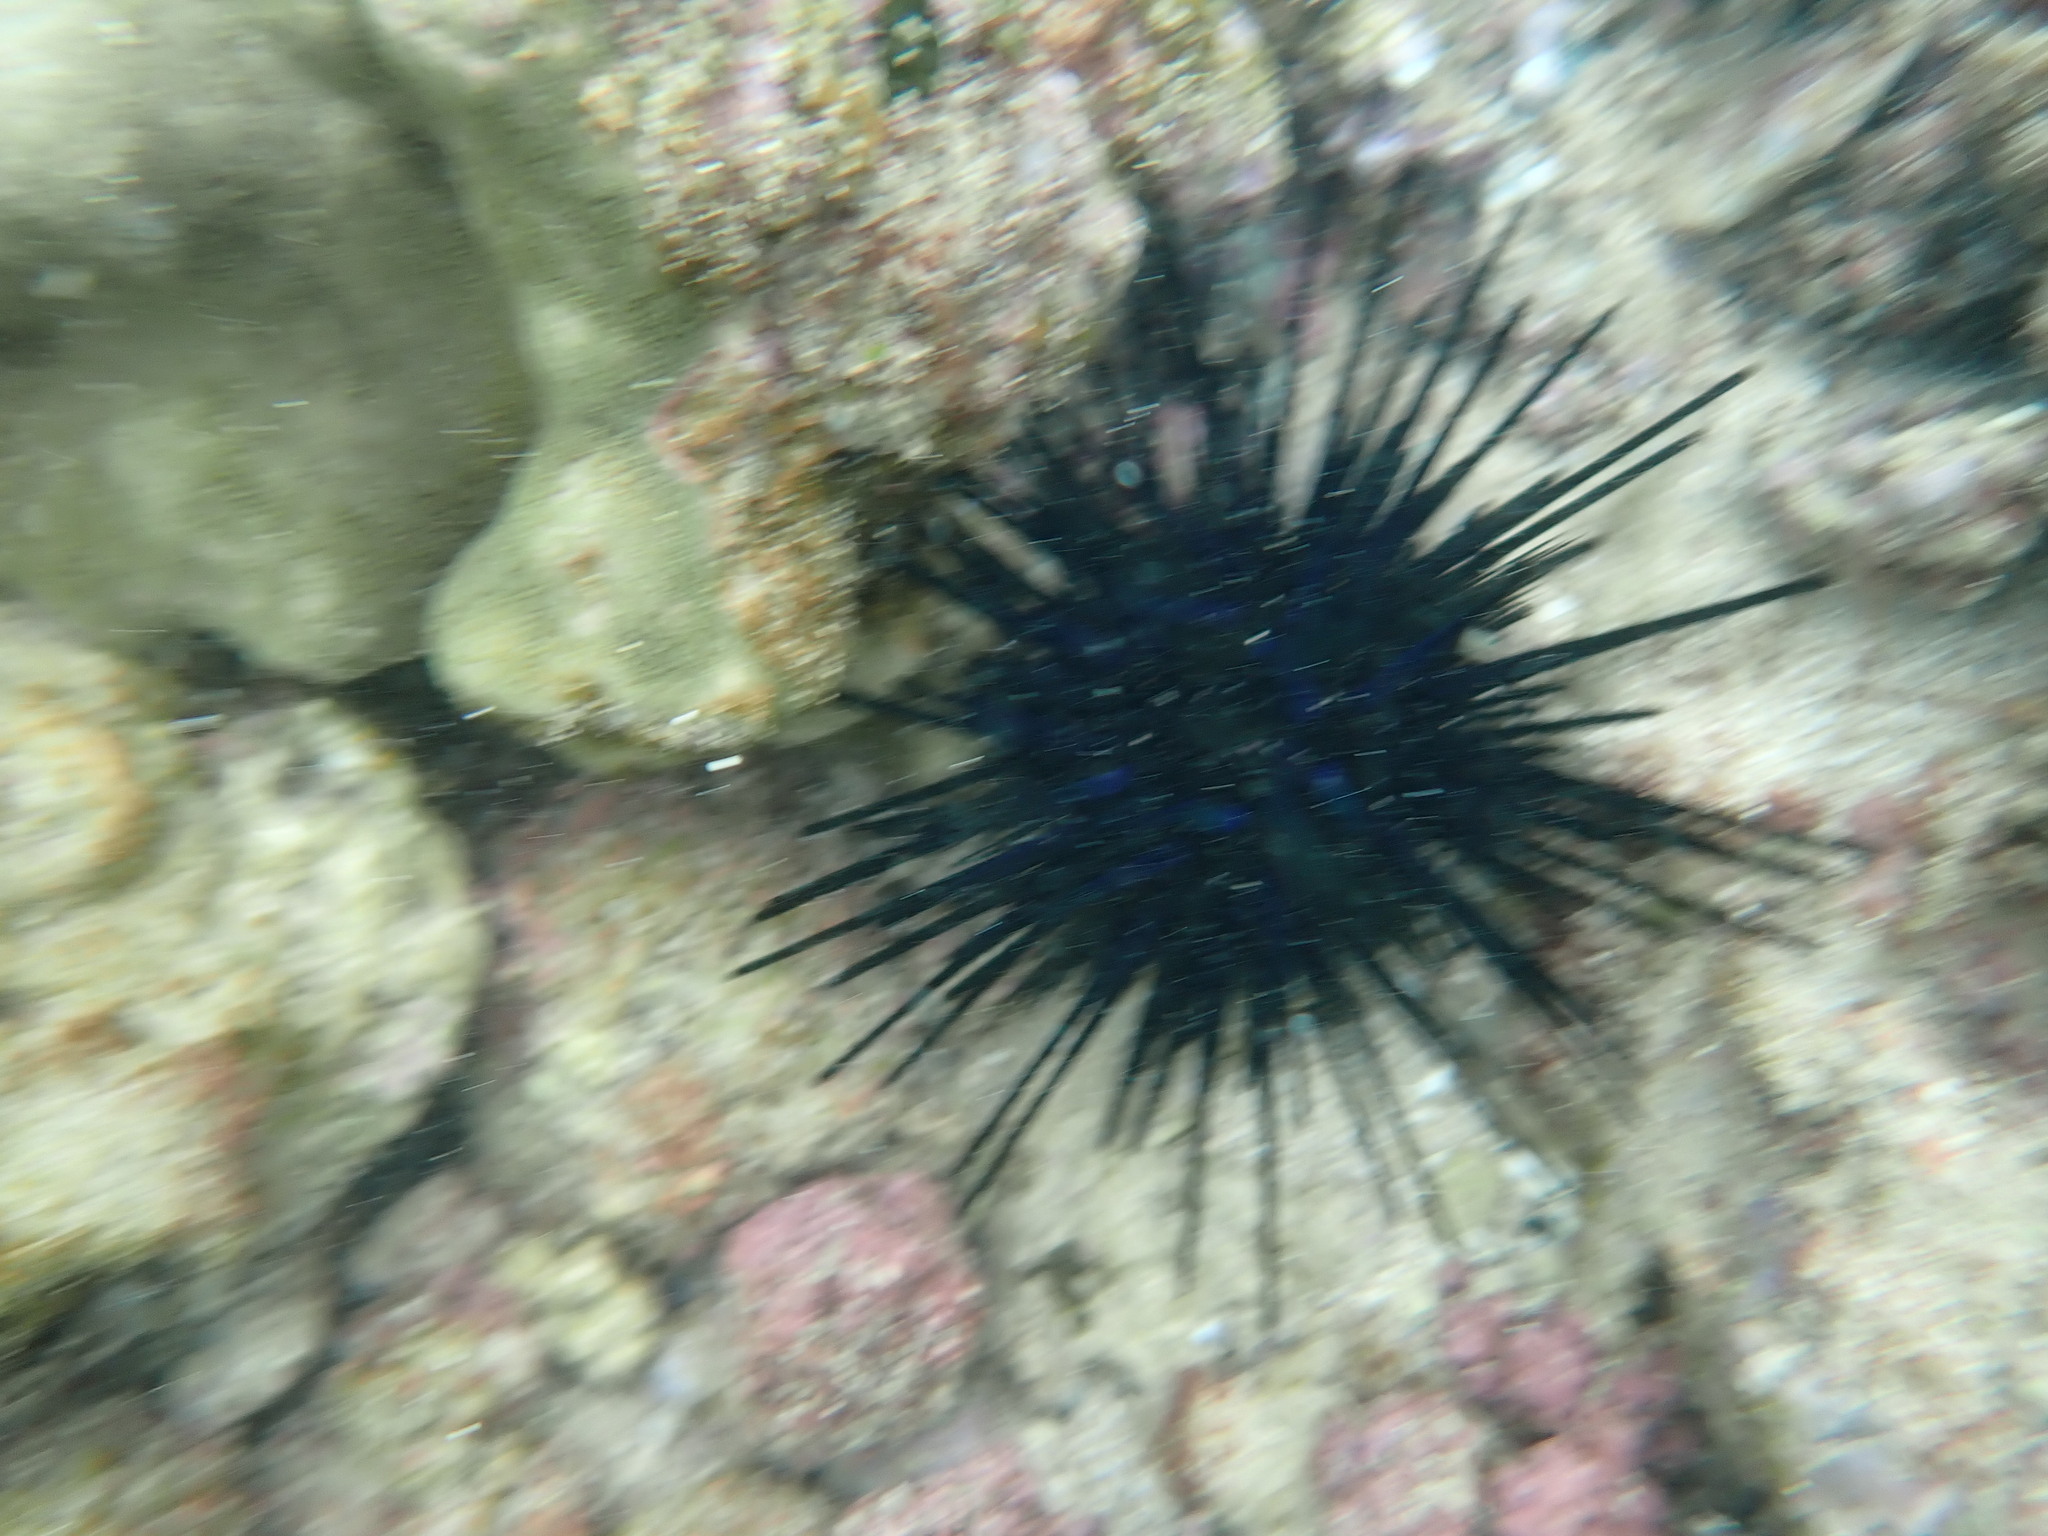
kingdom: Animalia
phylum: Echinodermata
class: Echinoidea
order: Diadematoida
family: Diadematidae
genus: Echinothrix
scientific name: Echinothrix diadema
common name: Schwarzer diademseeigel
